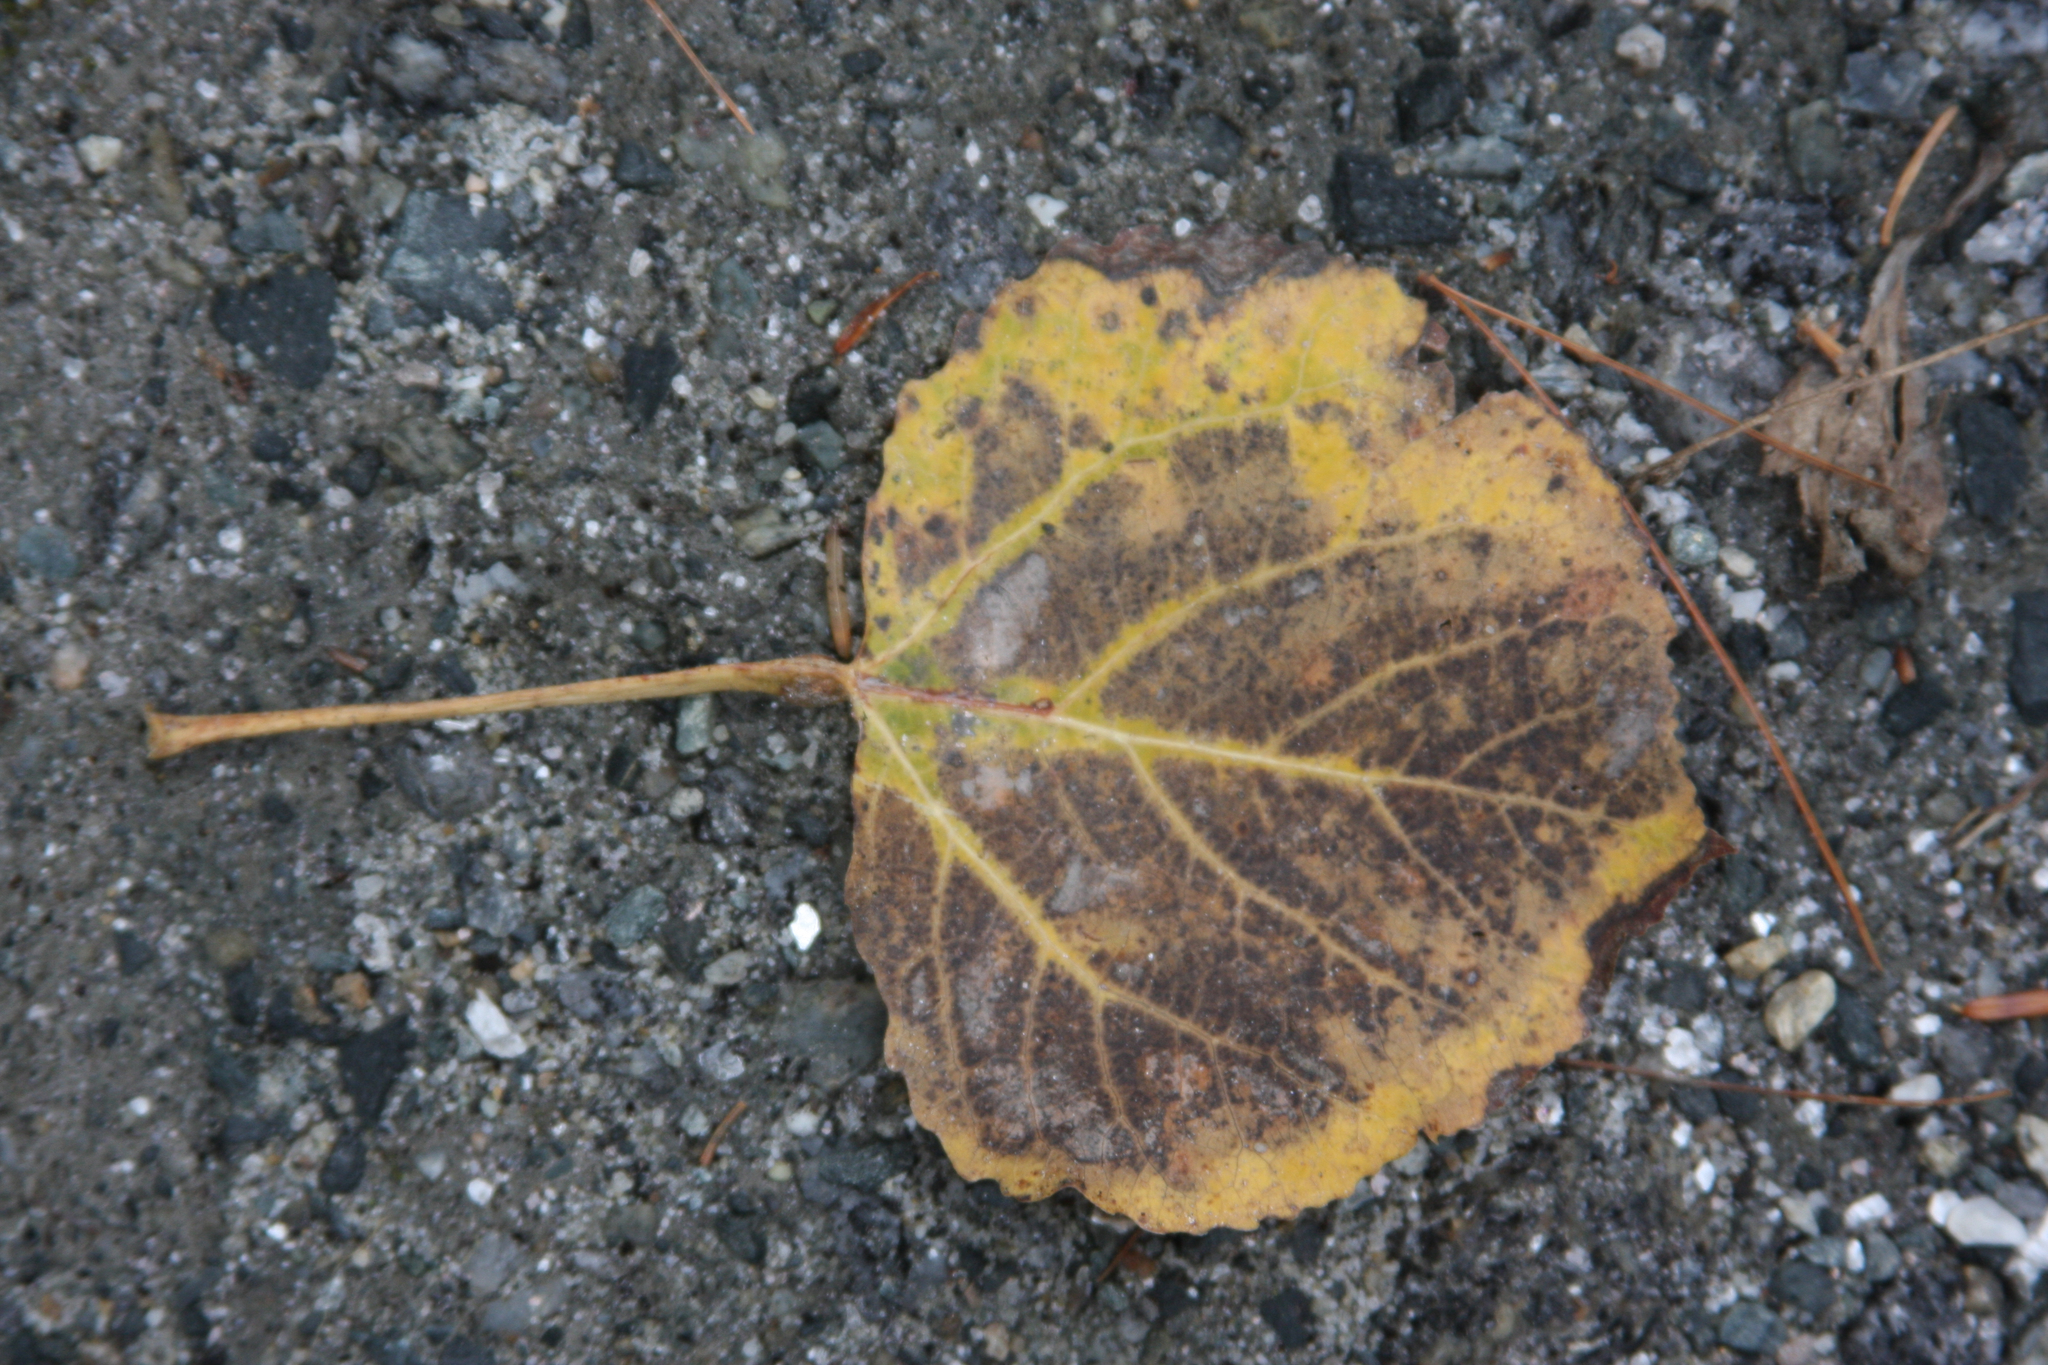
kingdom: Plantae
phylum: Tracheophyta
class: Magnoliopsida
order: Malpighiales
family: Salicaceae
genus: Populus
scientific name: Populus tremuloides
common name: Quaking aspen
